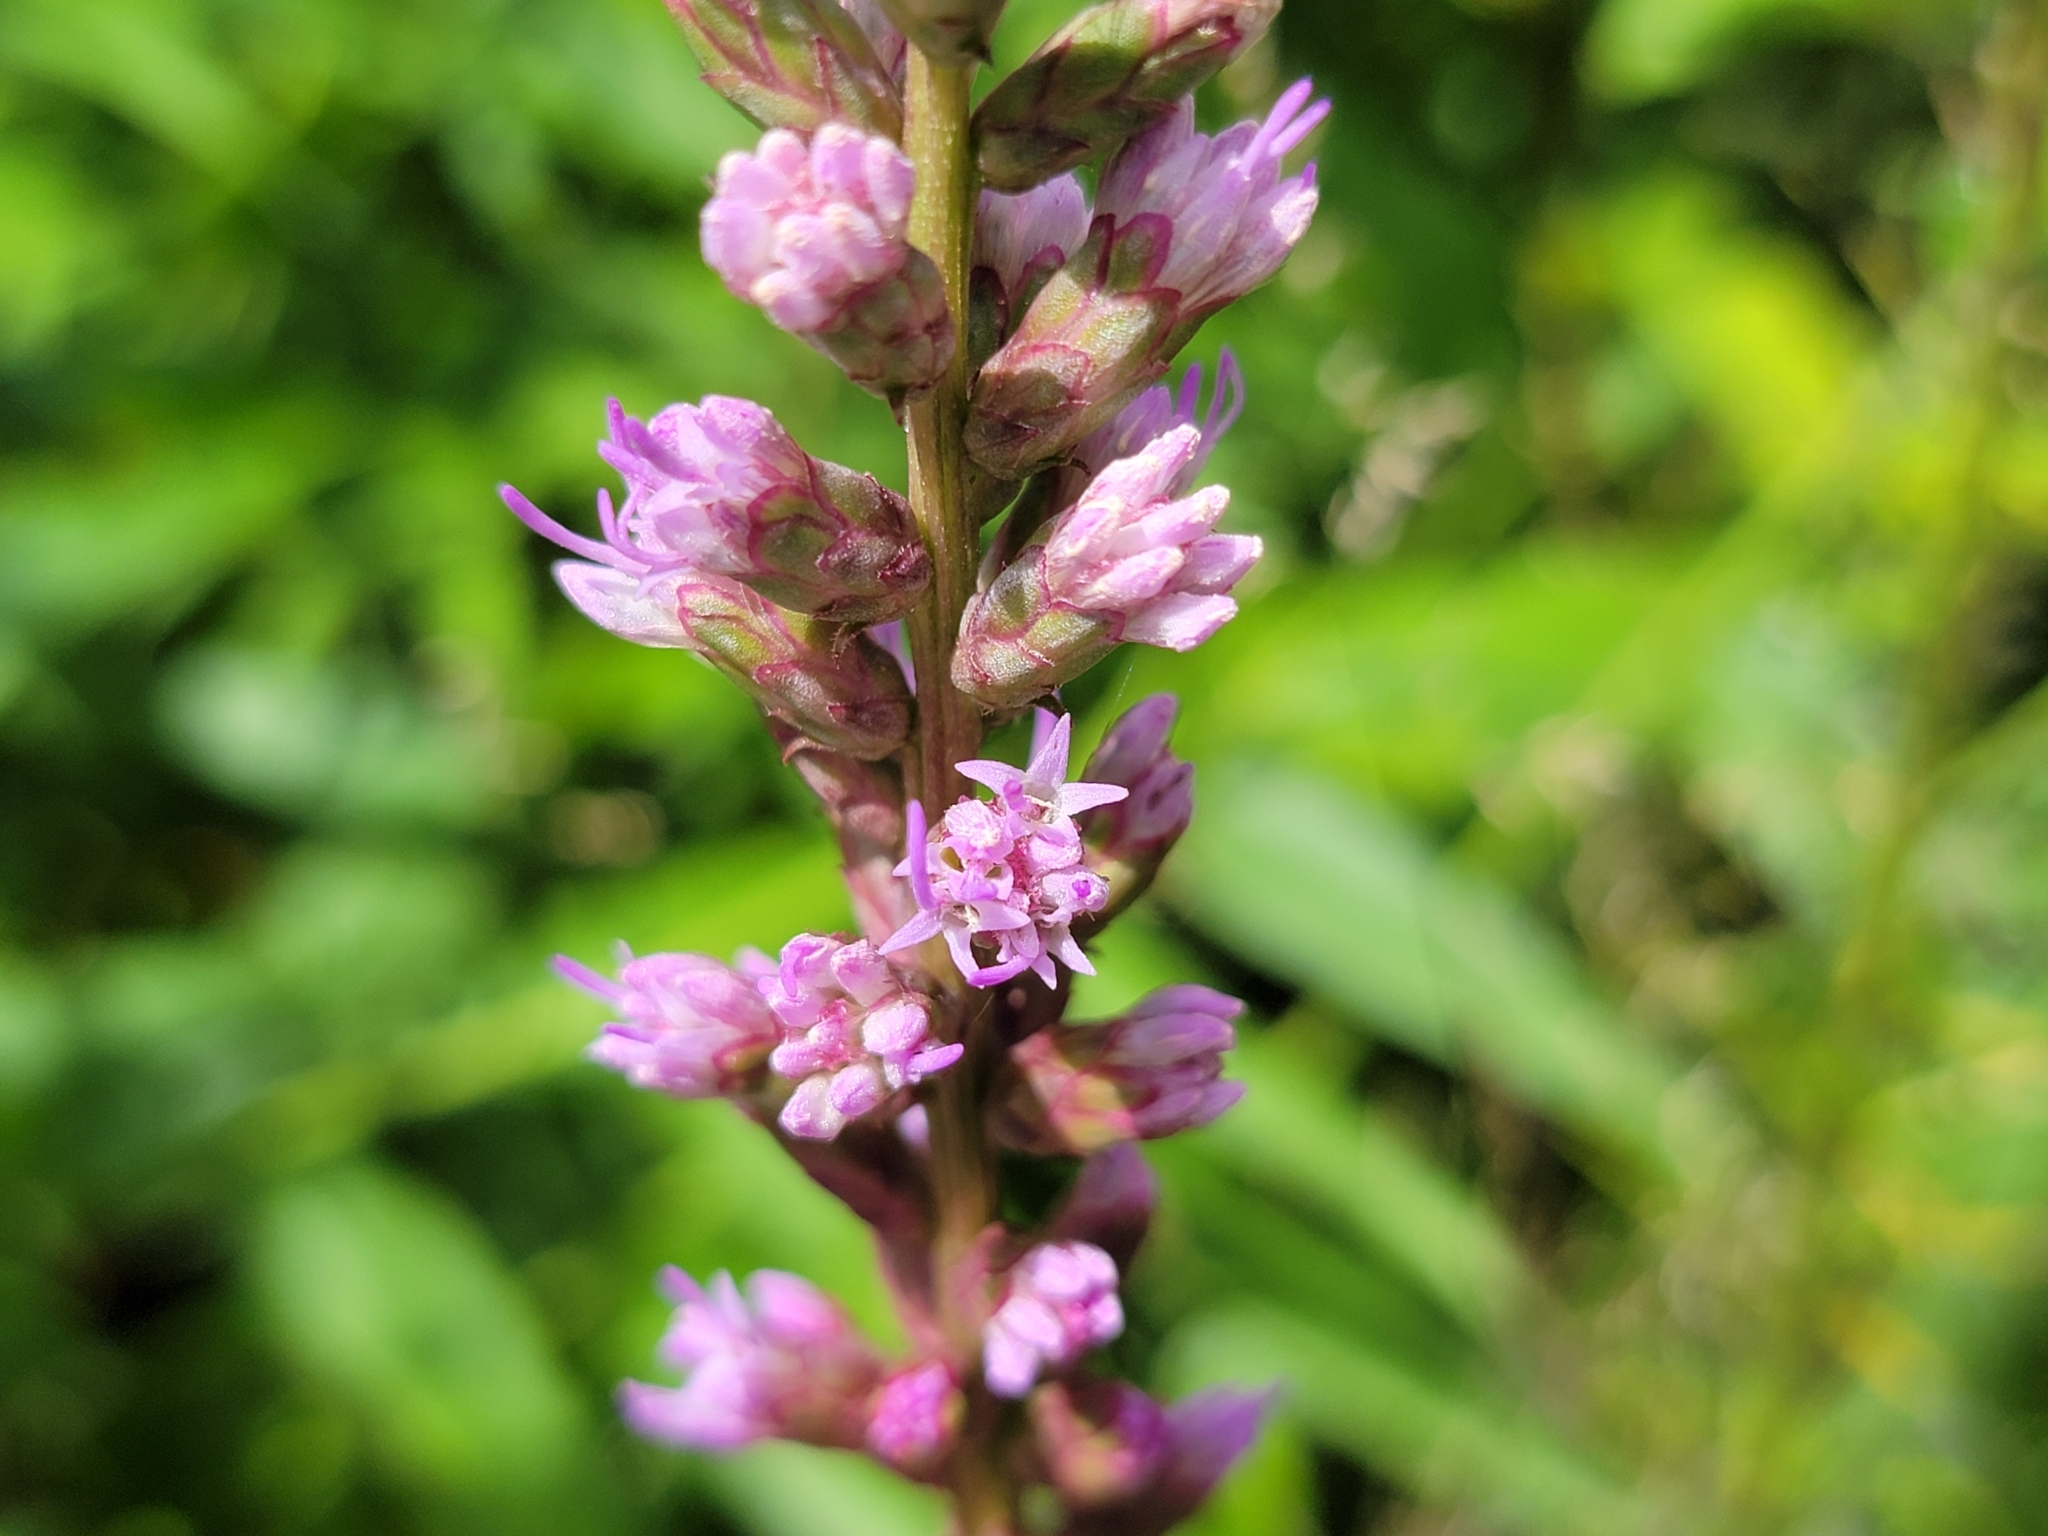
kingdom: Plantae
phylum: Tracheophyta
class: Magnoliopsida
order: Asterales
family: Asteraceae
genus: Liatris
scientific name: Liatris spicata
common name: Florist gayfeather
